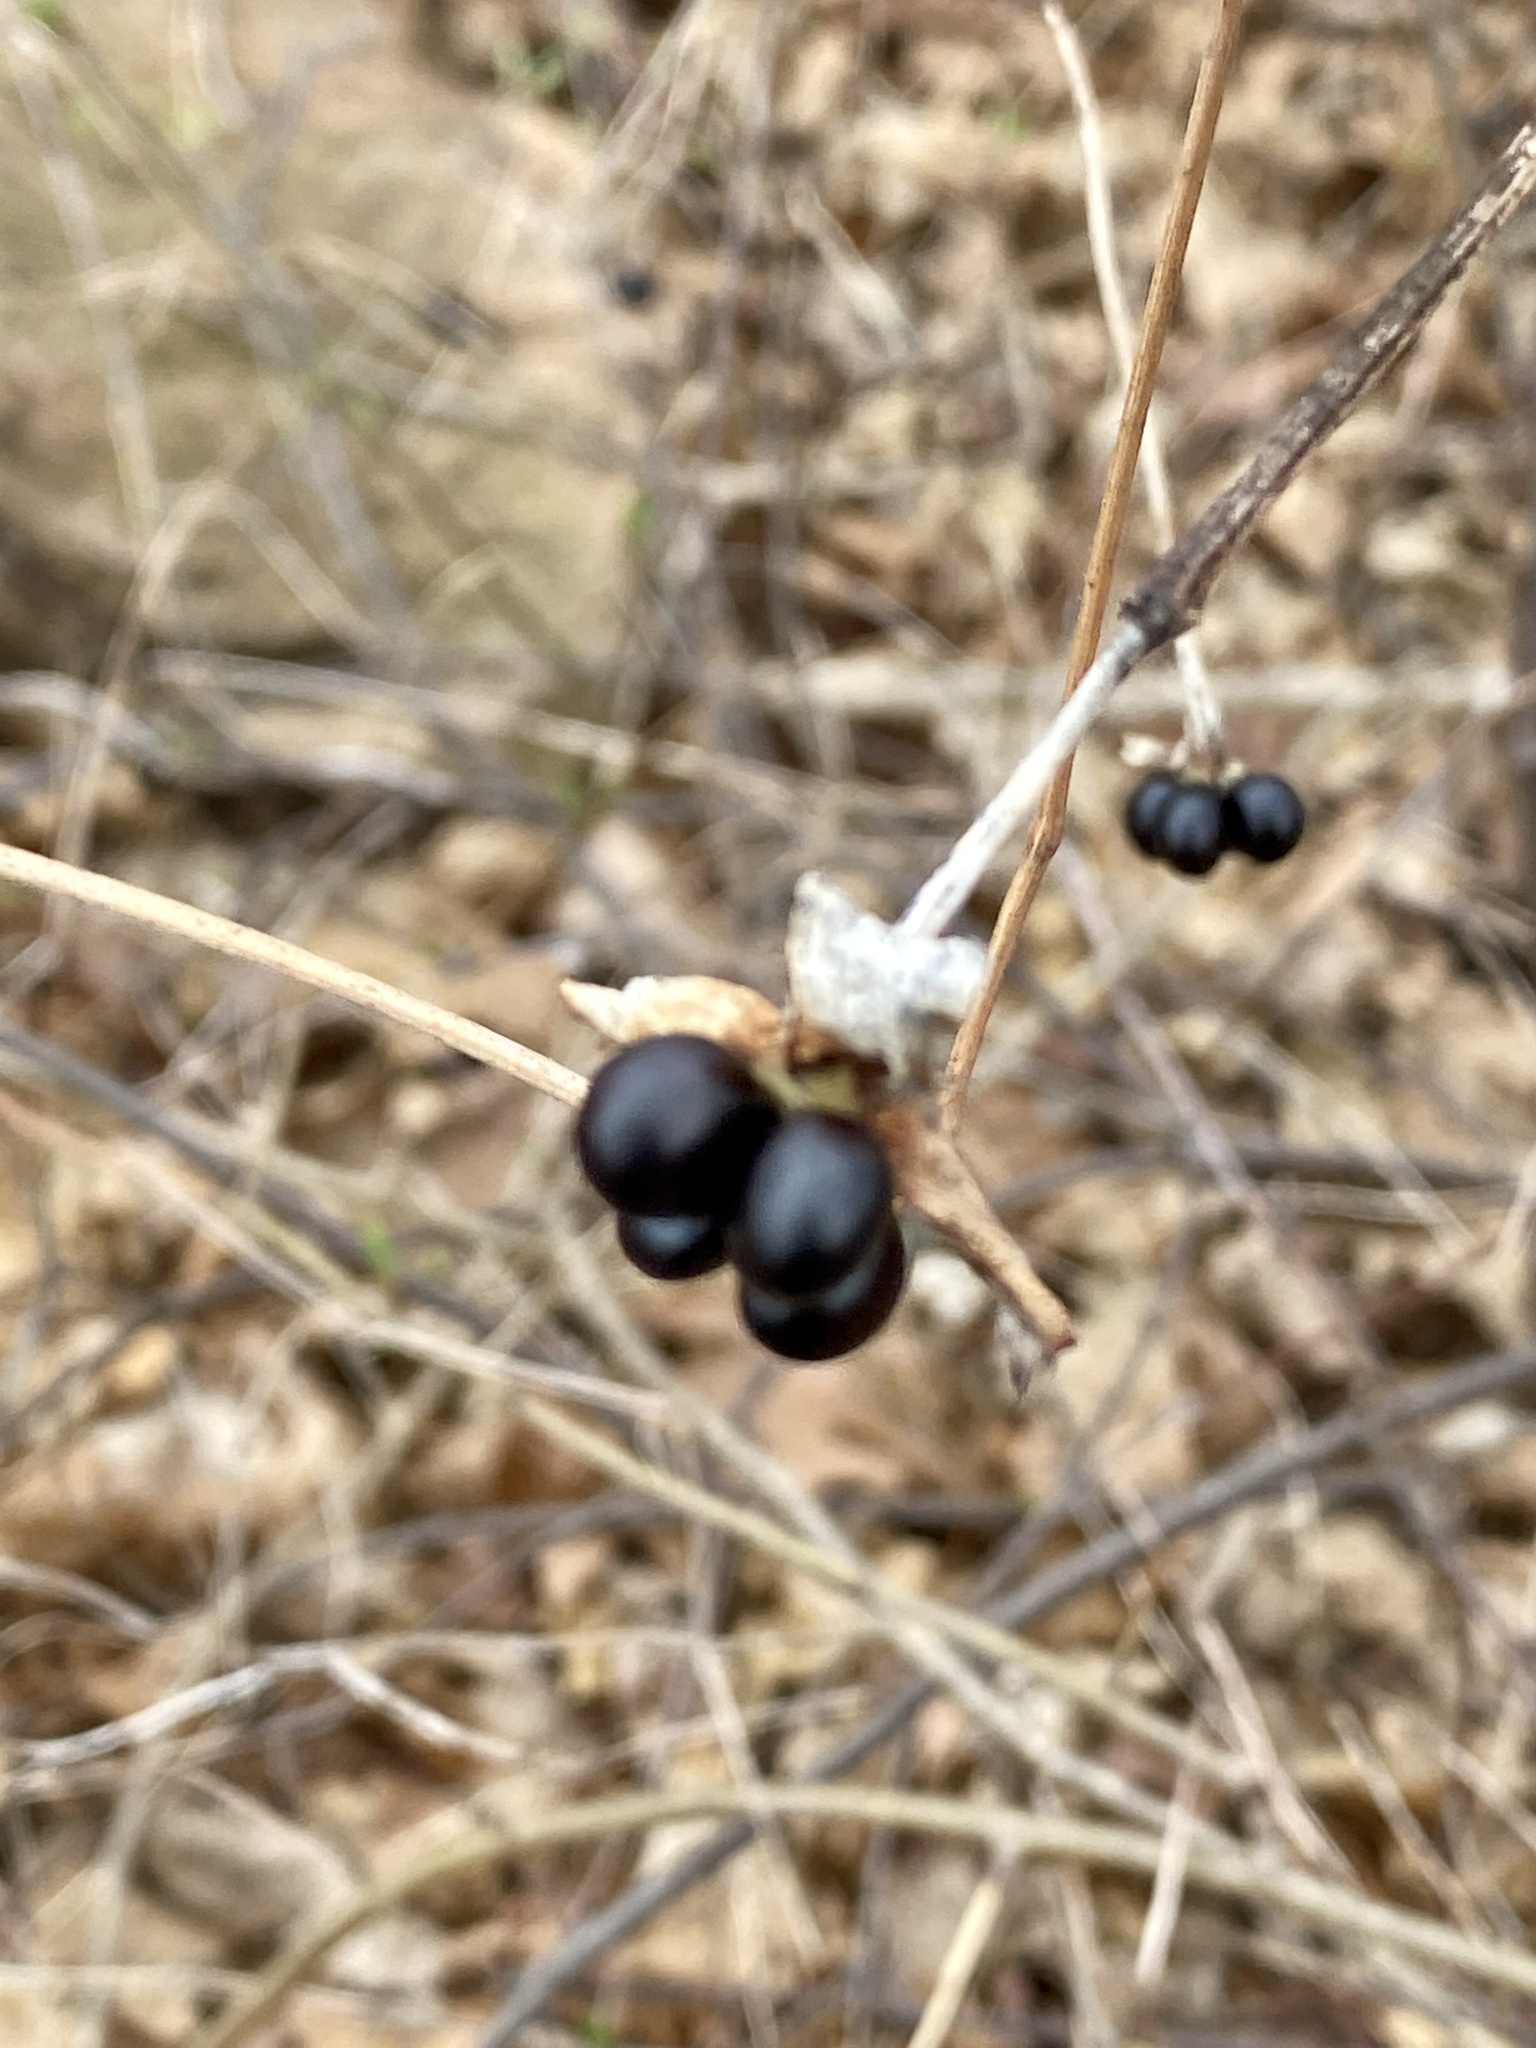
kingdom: Plantae
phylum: Tracheophyta
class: Magnoliopsida
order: Rosales
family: Rosaceae
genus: Rhodotypos
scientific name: Rhodotypos scandens
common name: Jetbead
